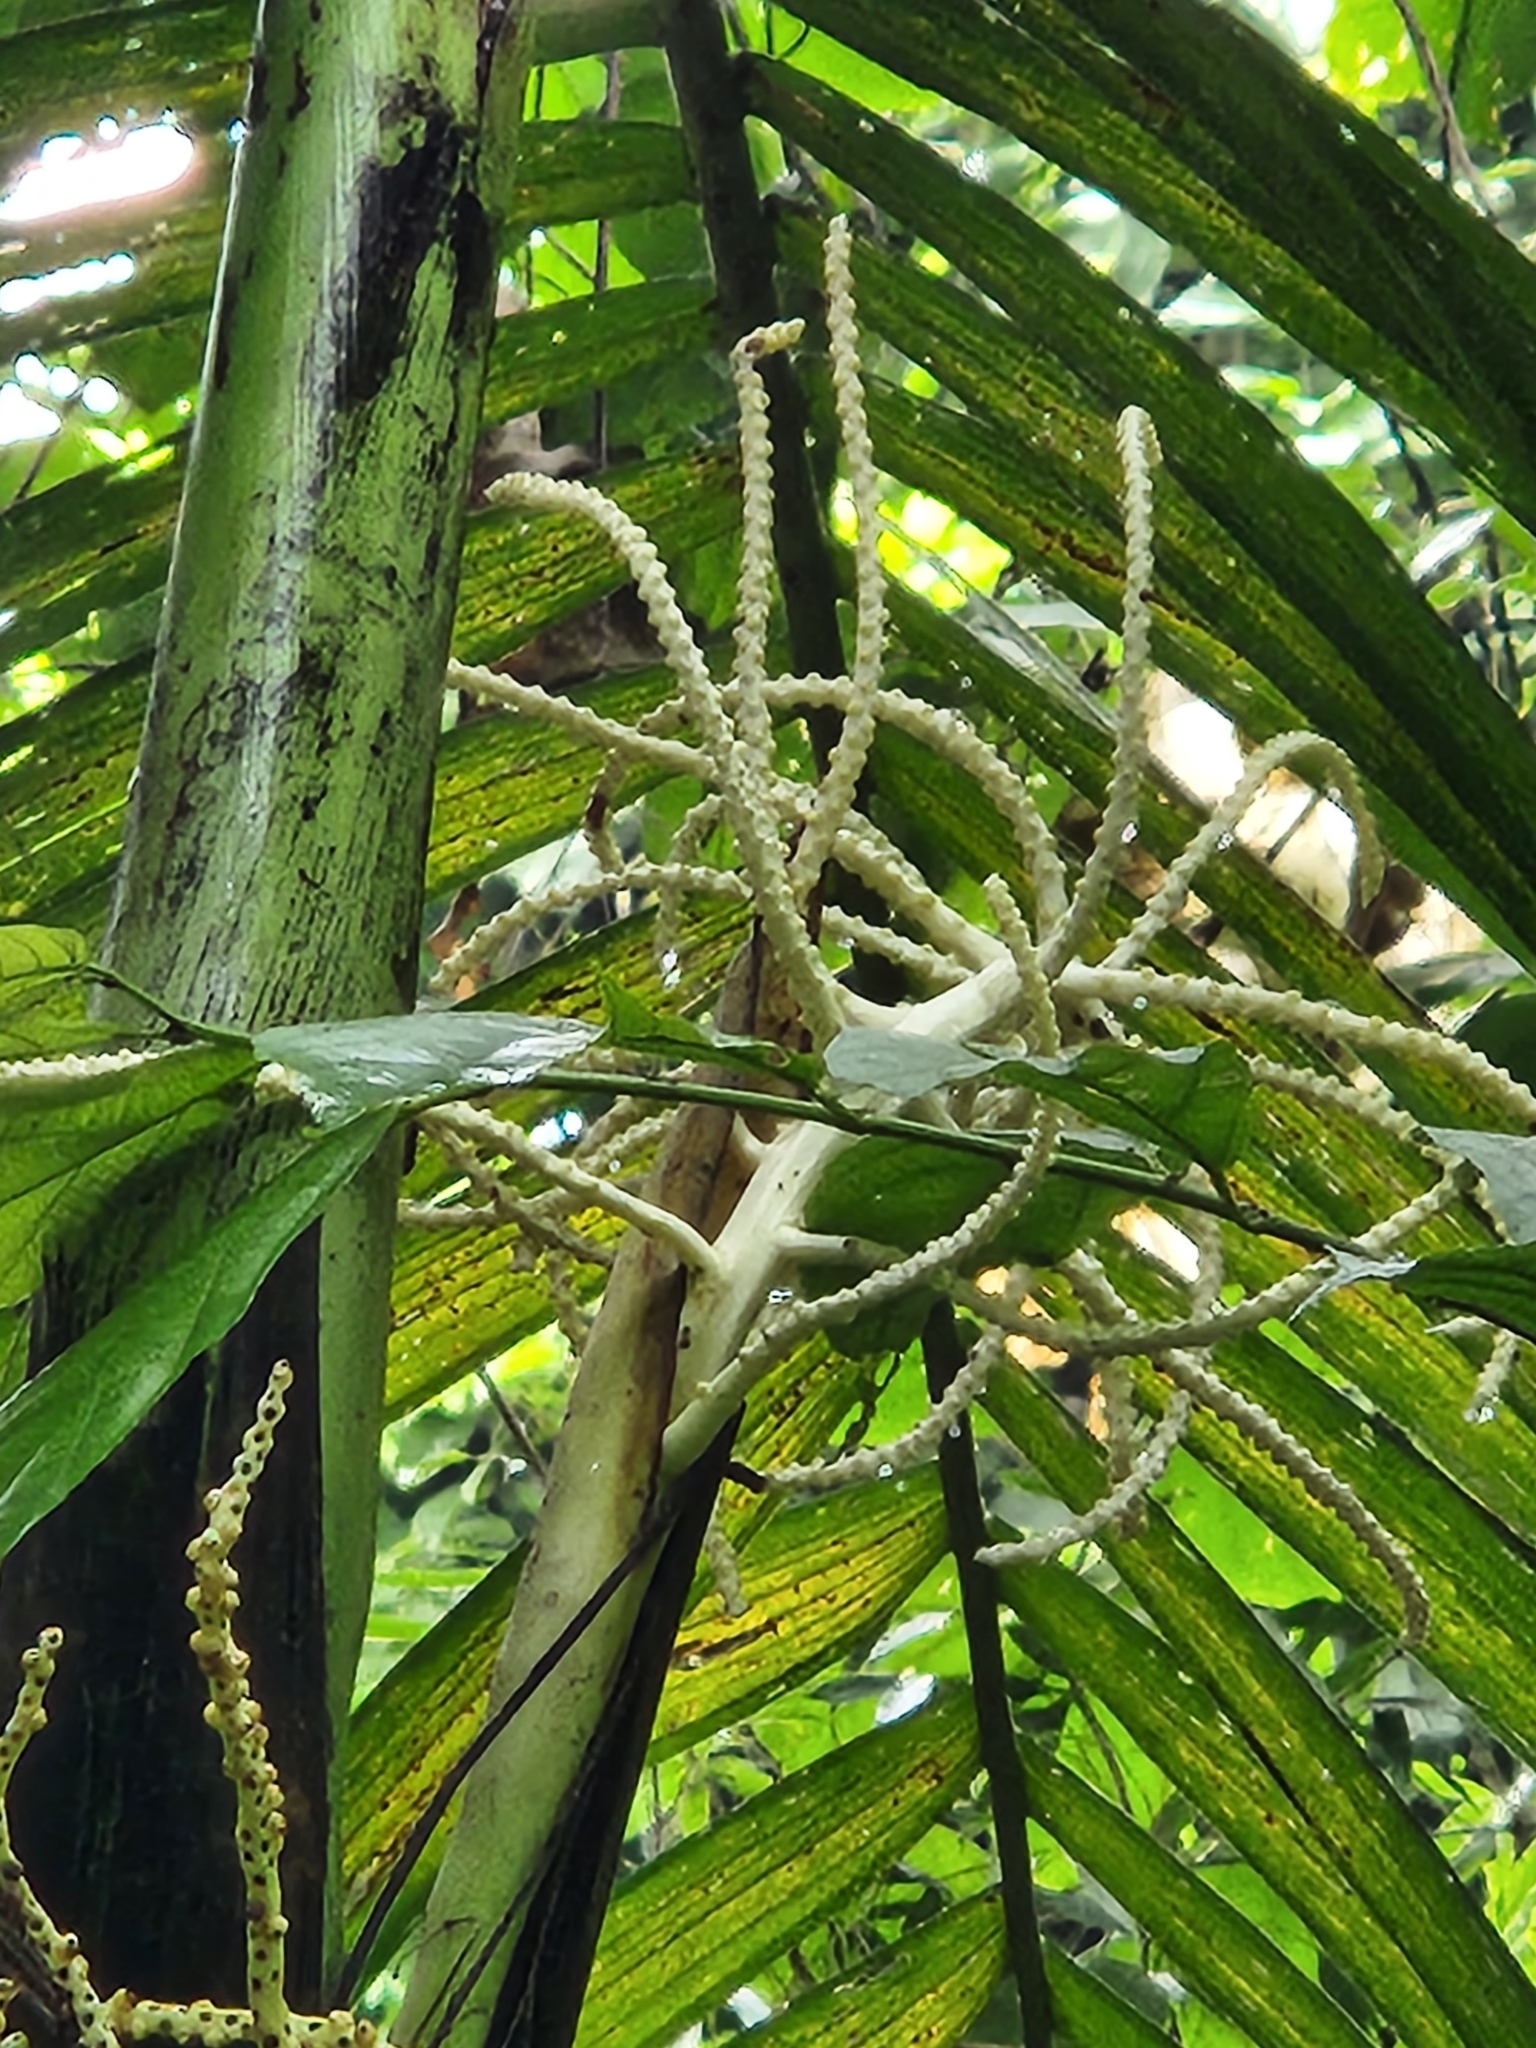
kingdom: Plantae
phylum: Tracheophyta
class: Liliopsida
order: Arecales
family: Arecaceae
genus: Chamaedorea
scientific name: Chamaedorea tepejilote
